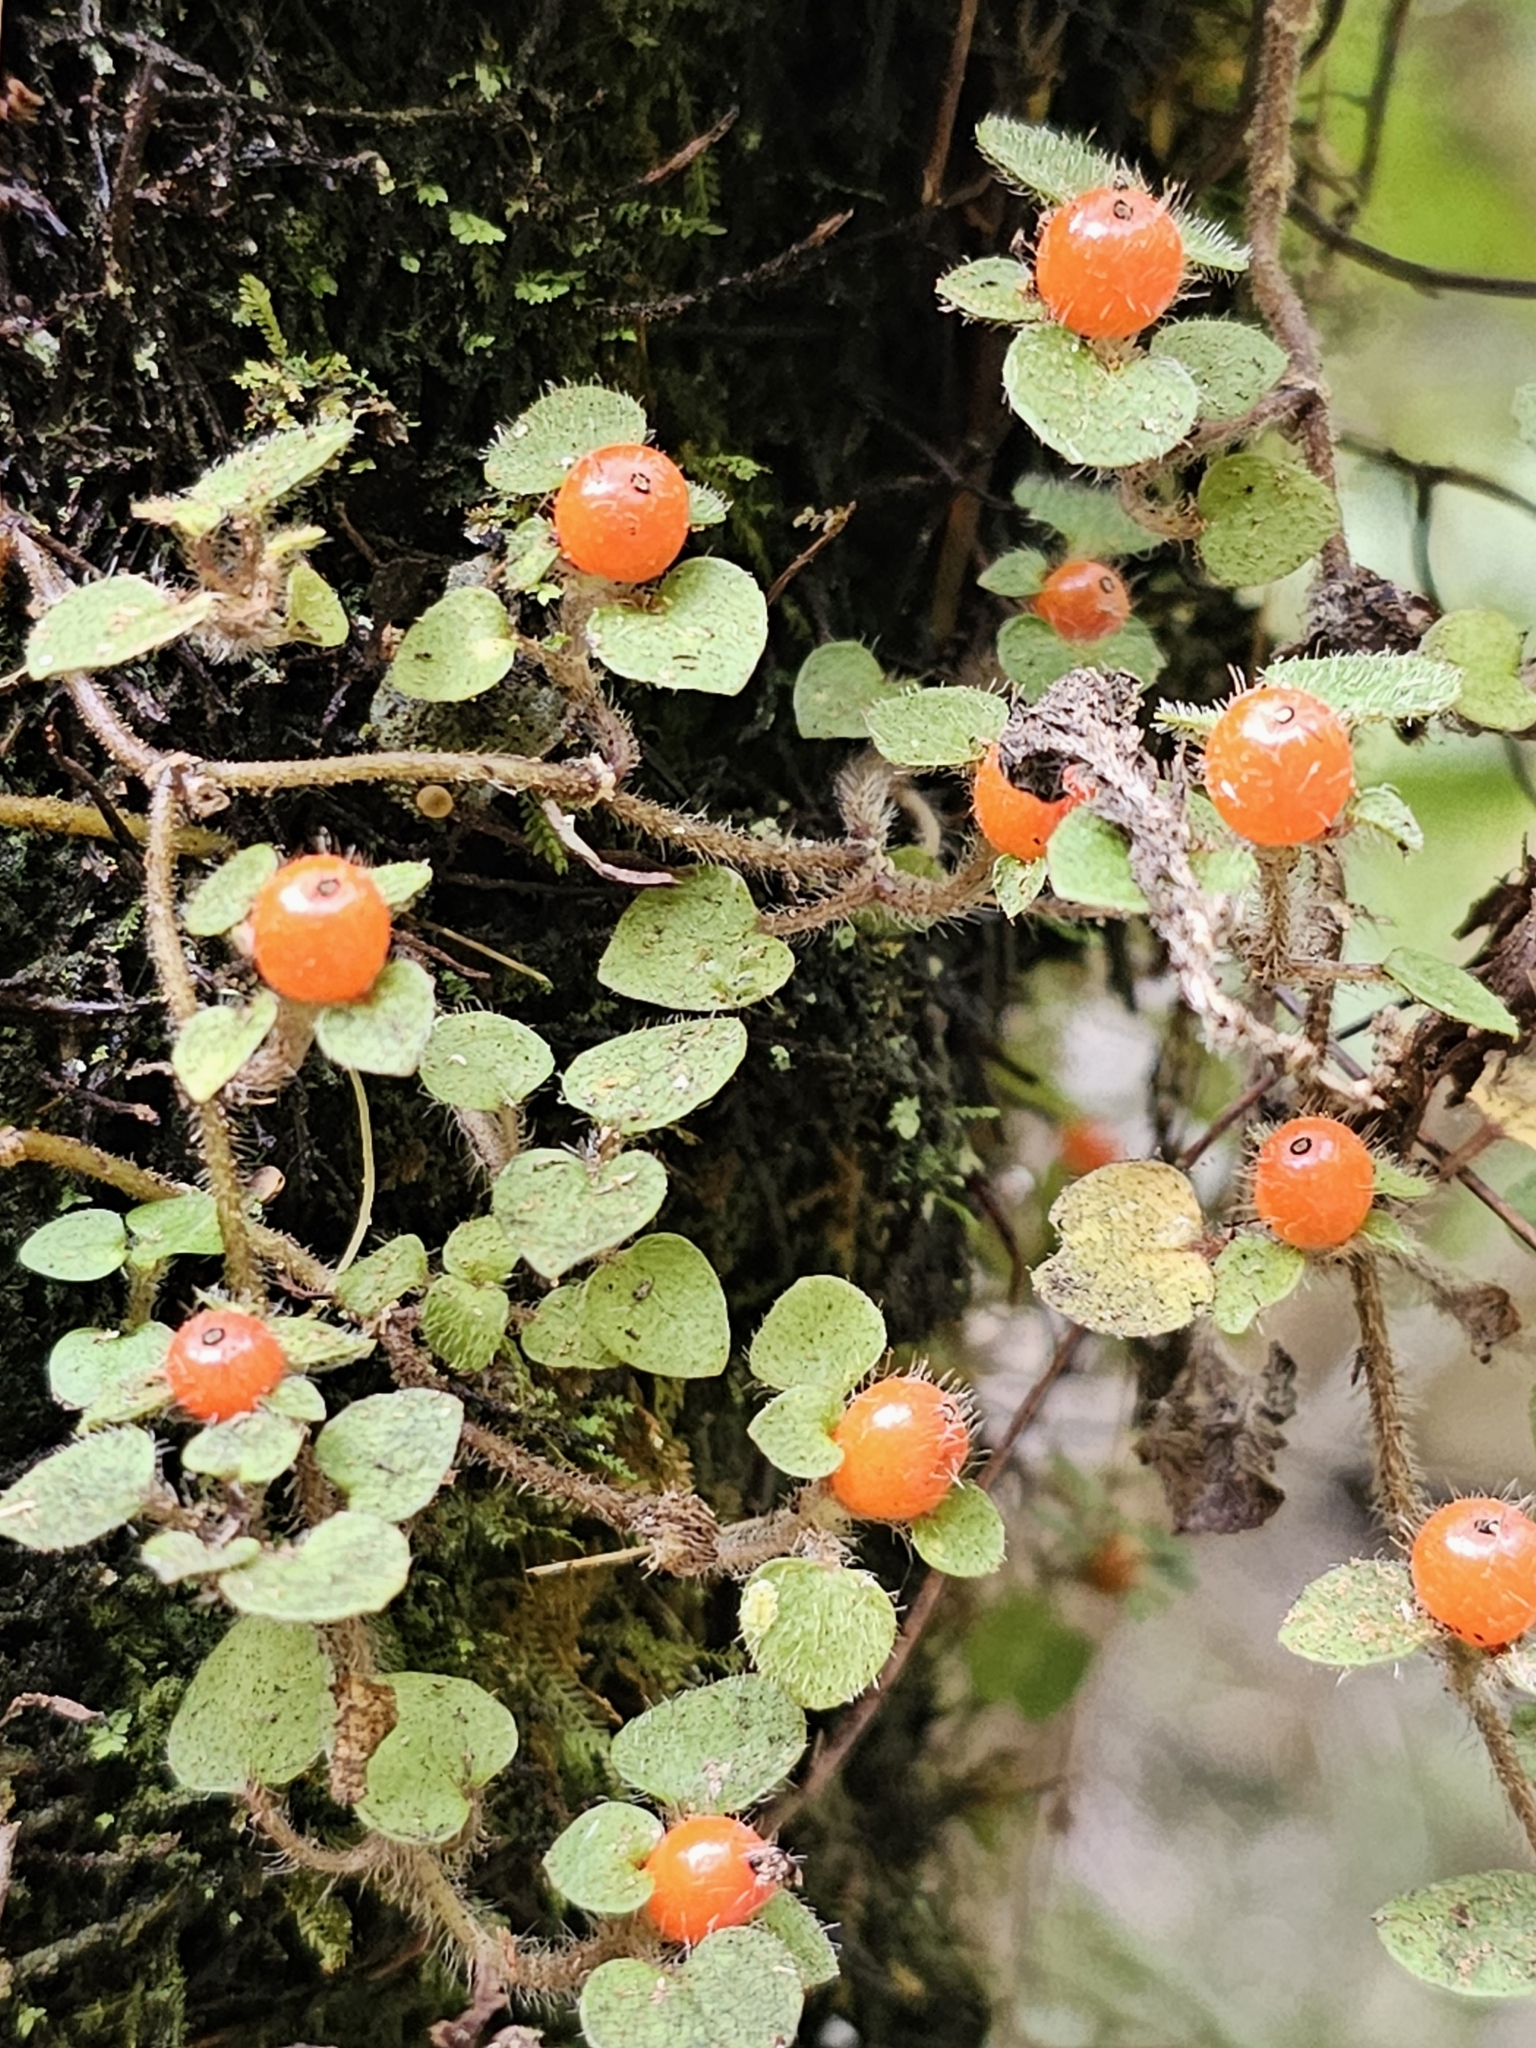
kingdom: Plantae
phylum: Tracheophyta
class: Magnoliopsida
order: Gentianales
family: Rubiaceae
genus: Nertera
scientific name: Nertera villosa
